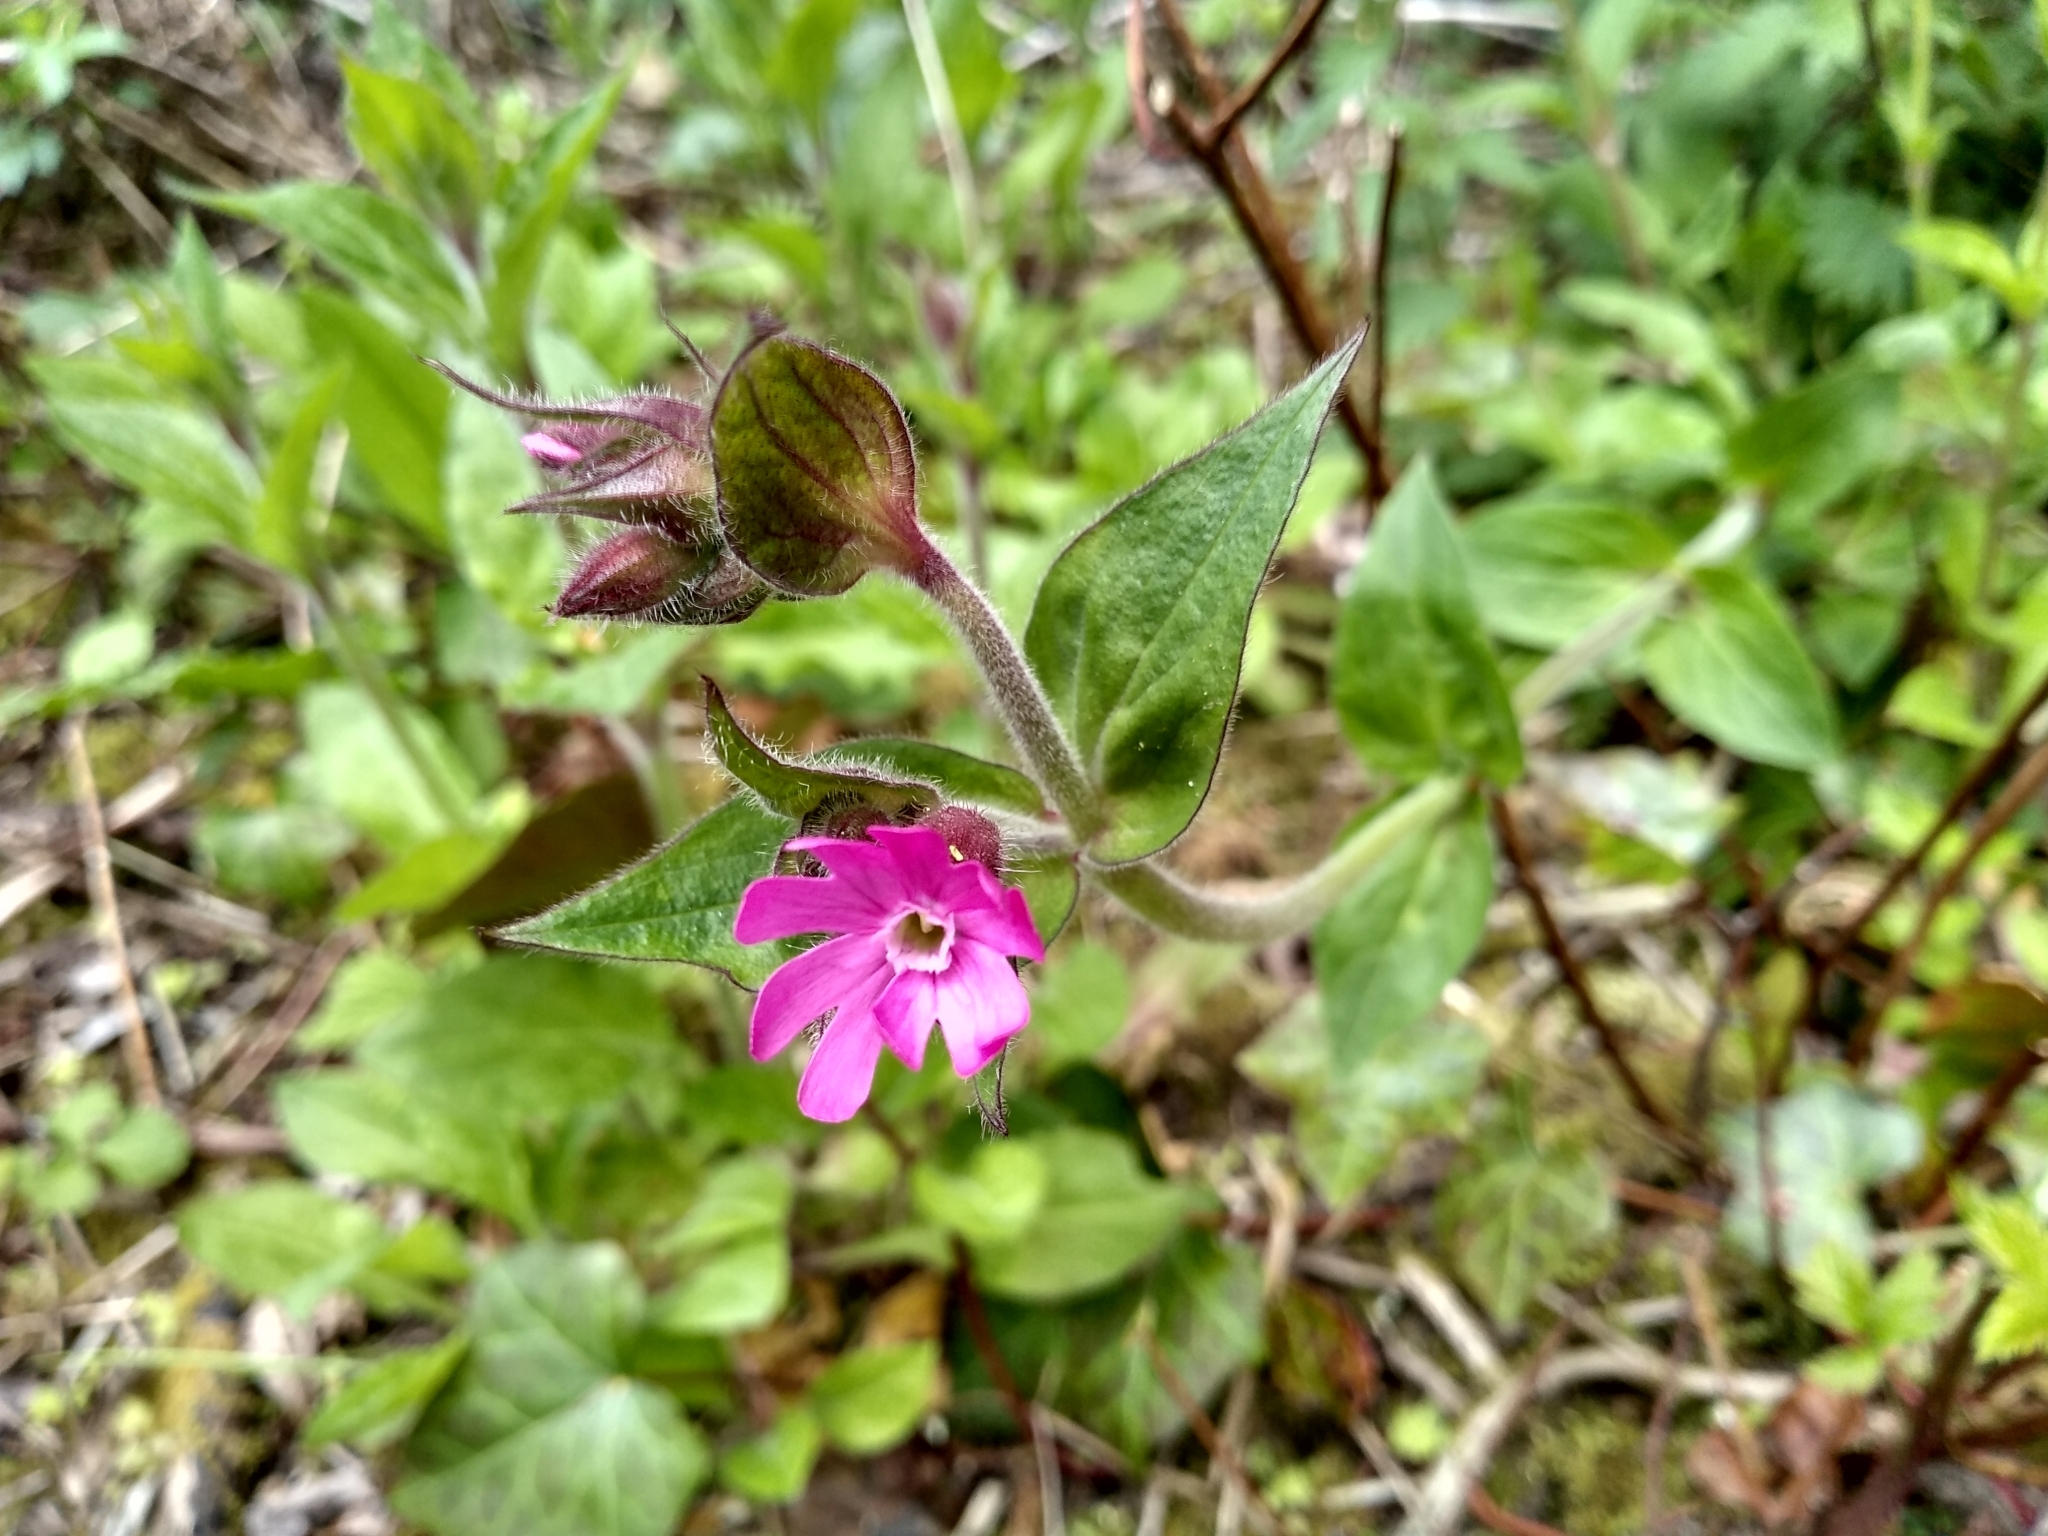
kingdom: Plantae
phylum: Tracheophyta
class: Magnoliopsida
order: Caryophyllales
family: Caryophyllaceae
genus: Silene
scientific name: Silene dioica
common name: Red campion
